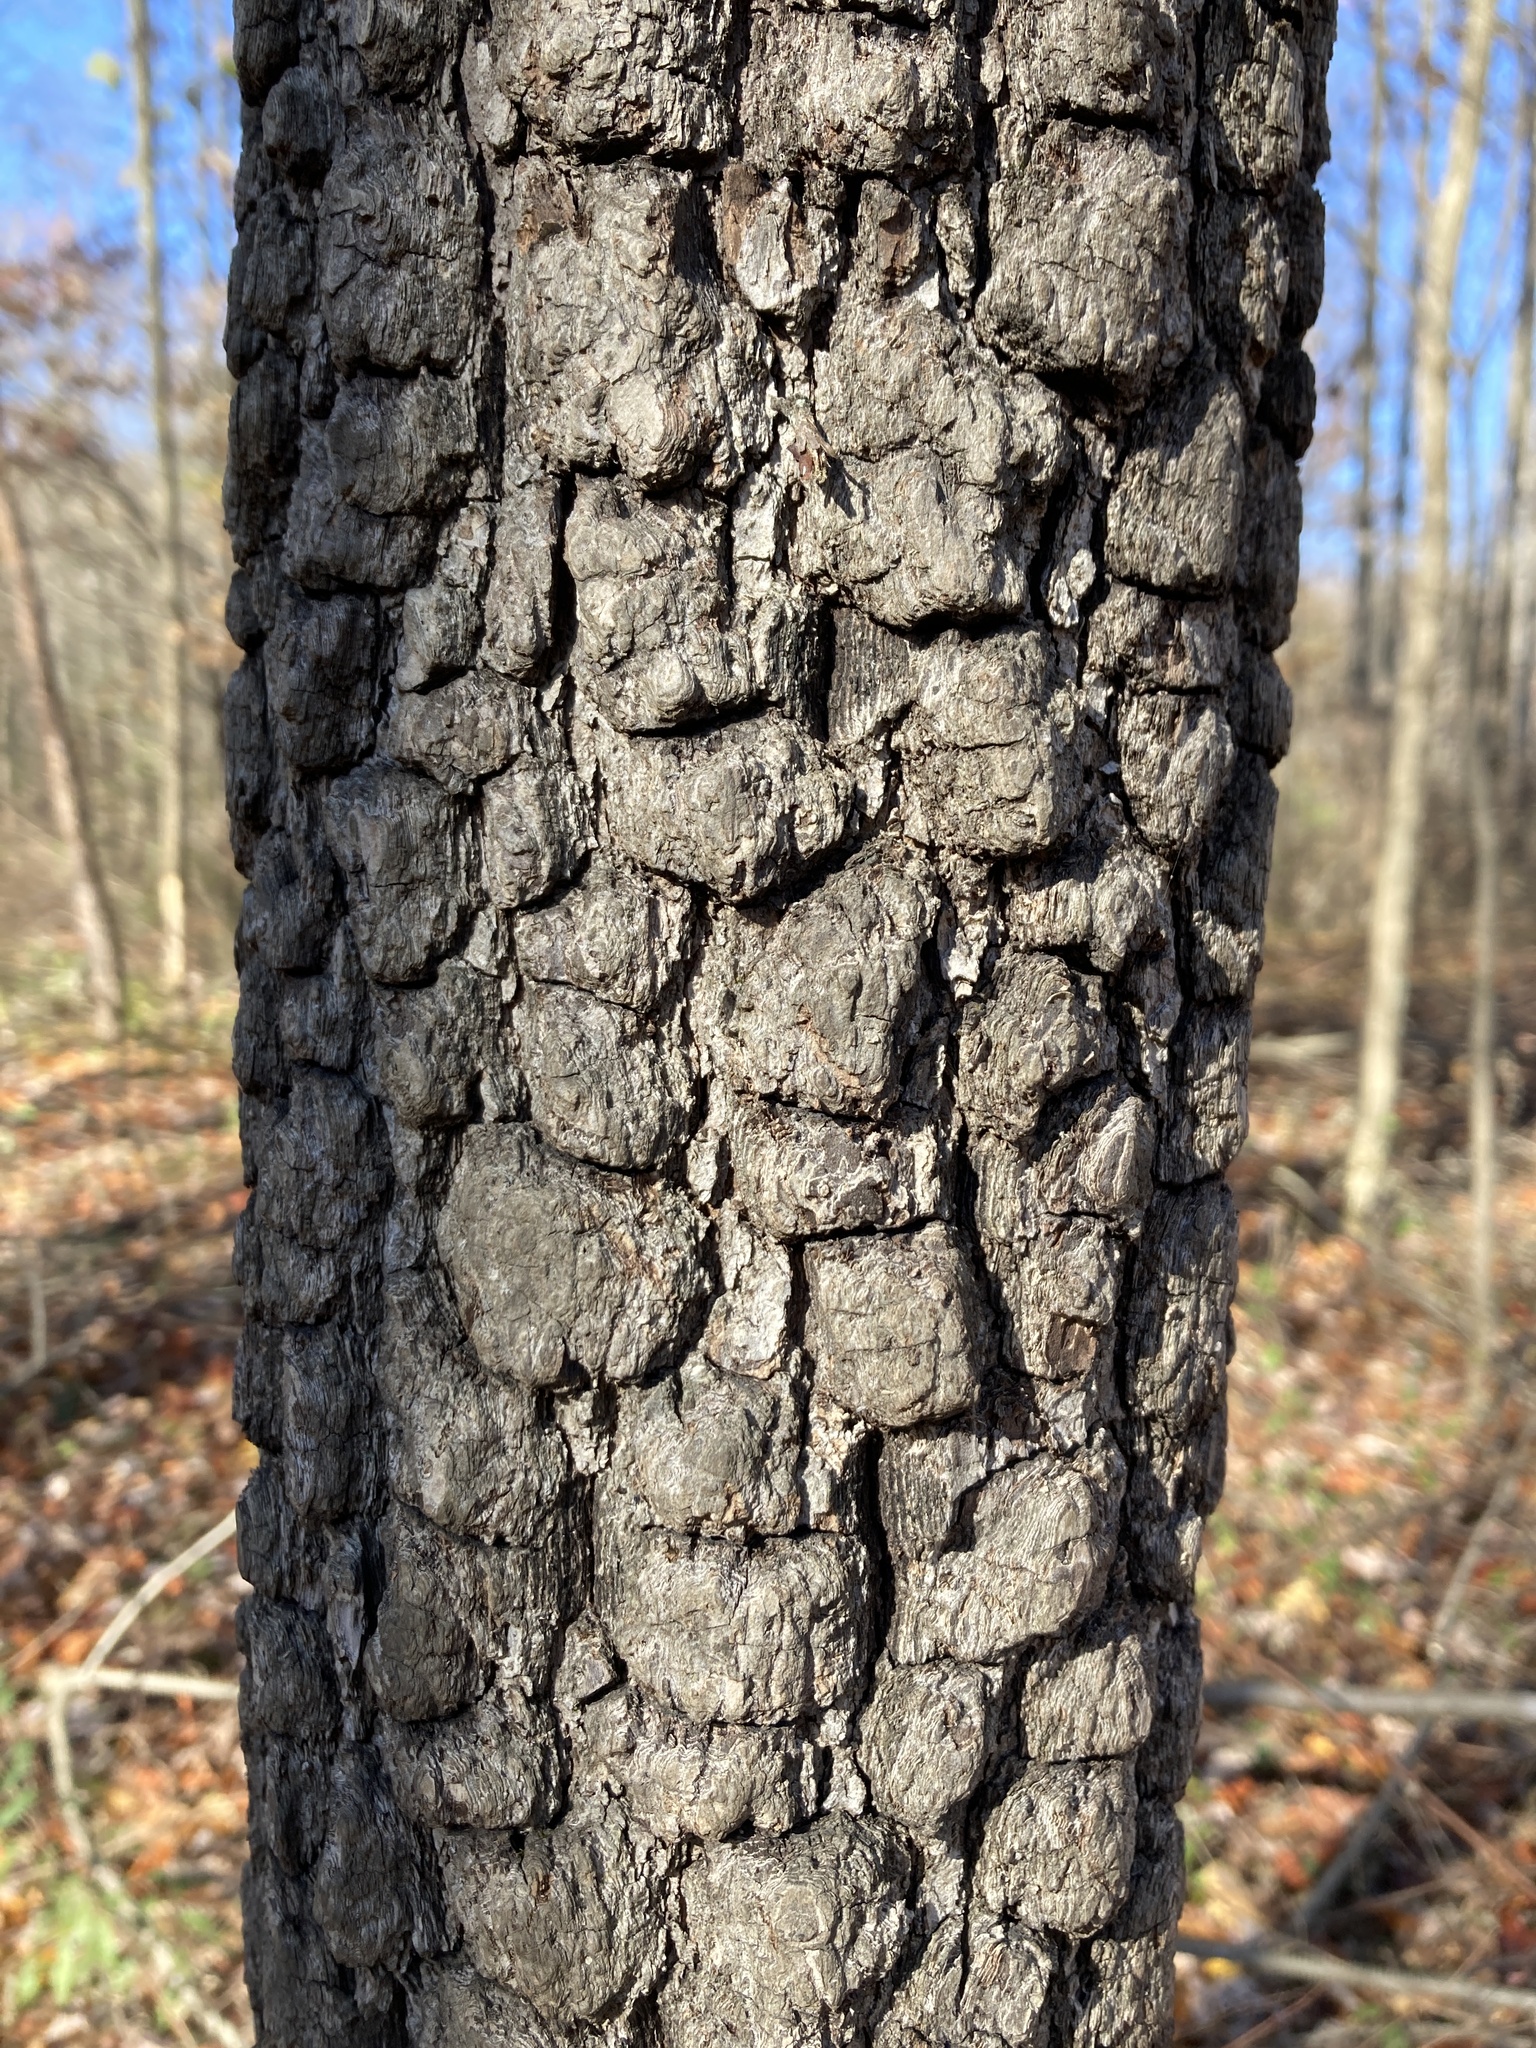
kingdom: Plantae
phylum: Tracheophyta
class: Magnoliopsida
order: Ericales
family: Ebenaceae
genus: Diospyros
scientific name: Diospyros virginiana
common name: Persimmon
